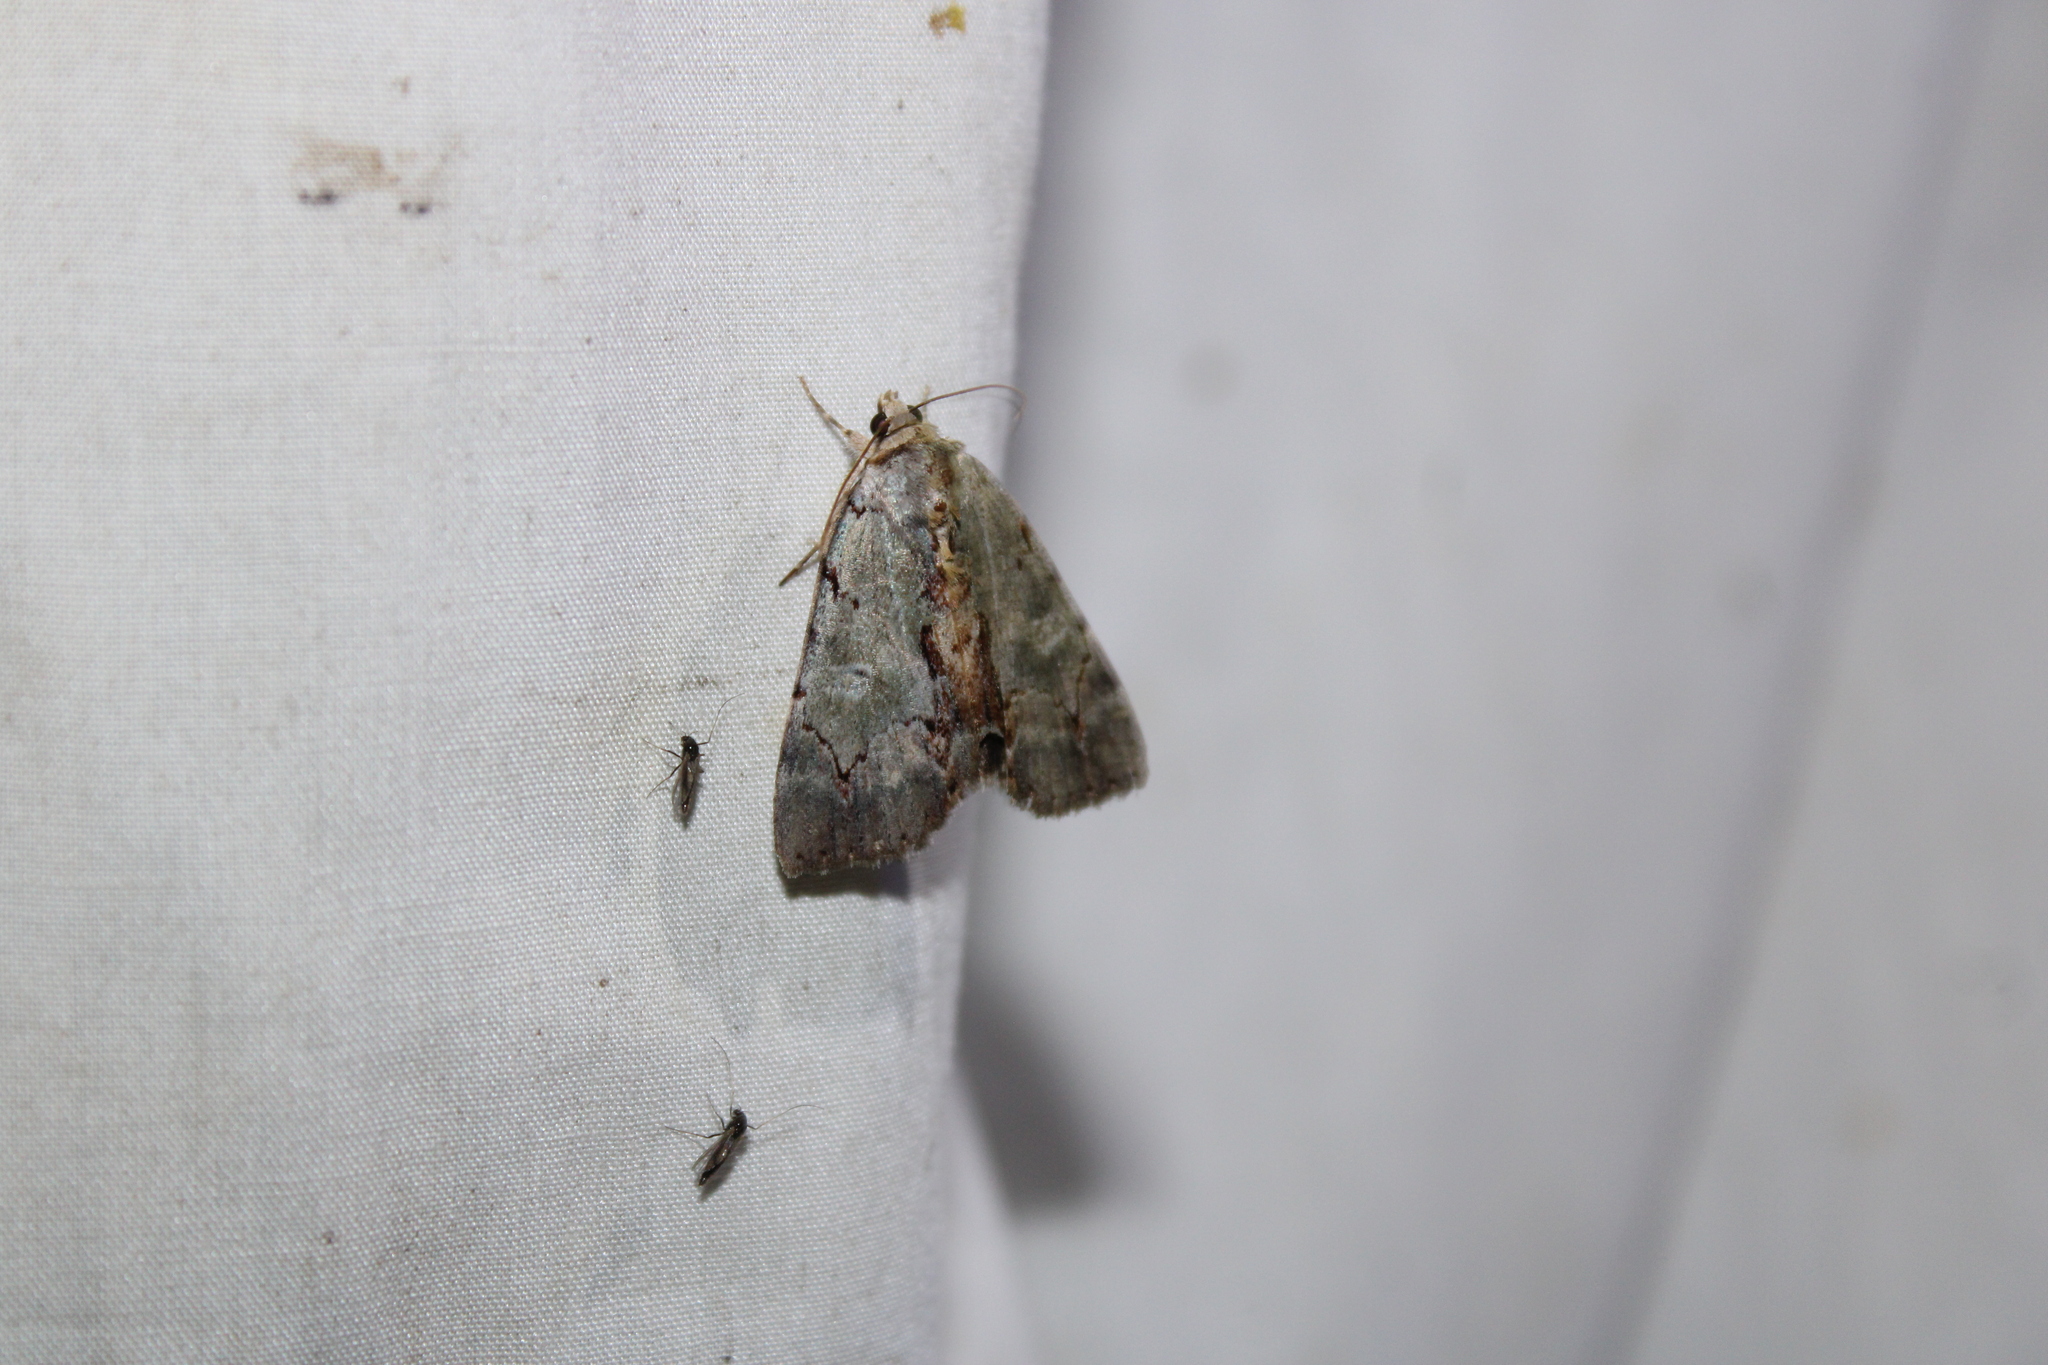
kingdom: Animalia
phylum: Arthropoda
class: Insecta
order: Lepidoptera
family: Erebidae
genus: Catocala
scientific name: Catocala grynea
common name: Woody underwing
